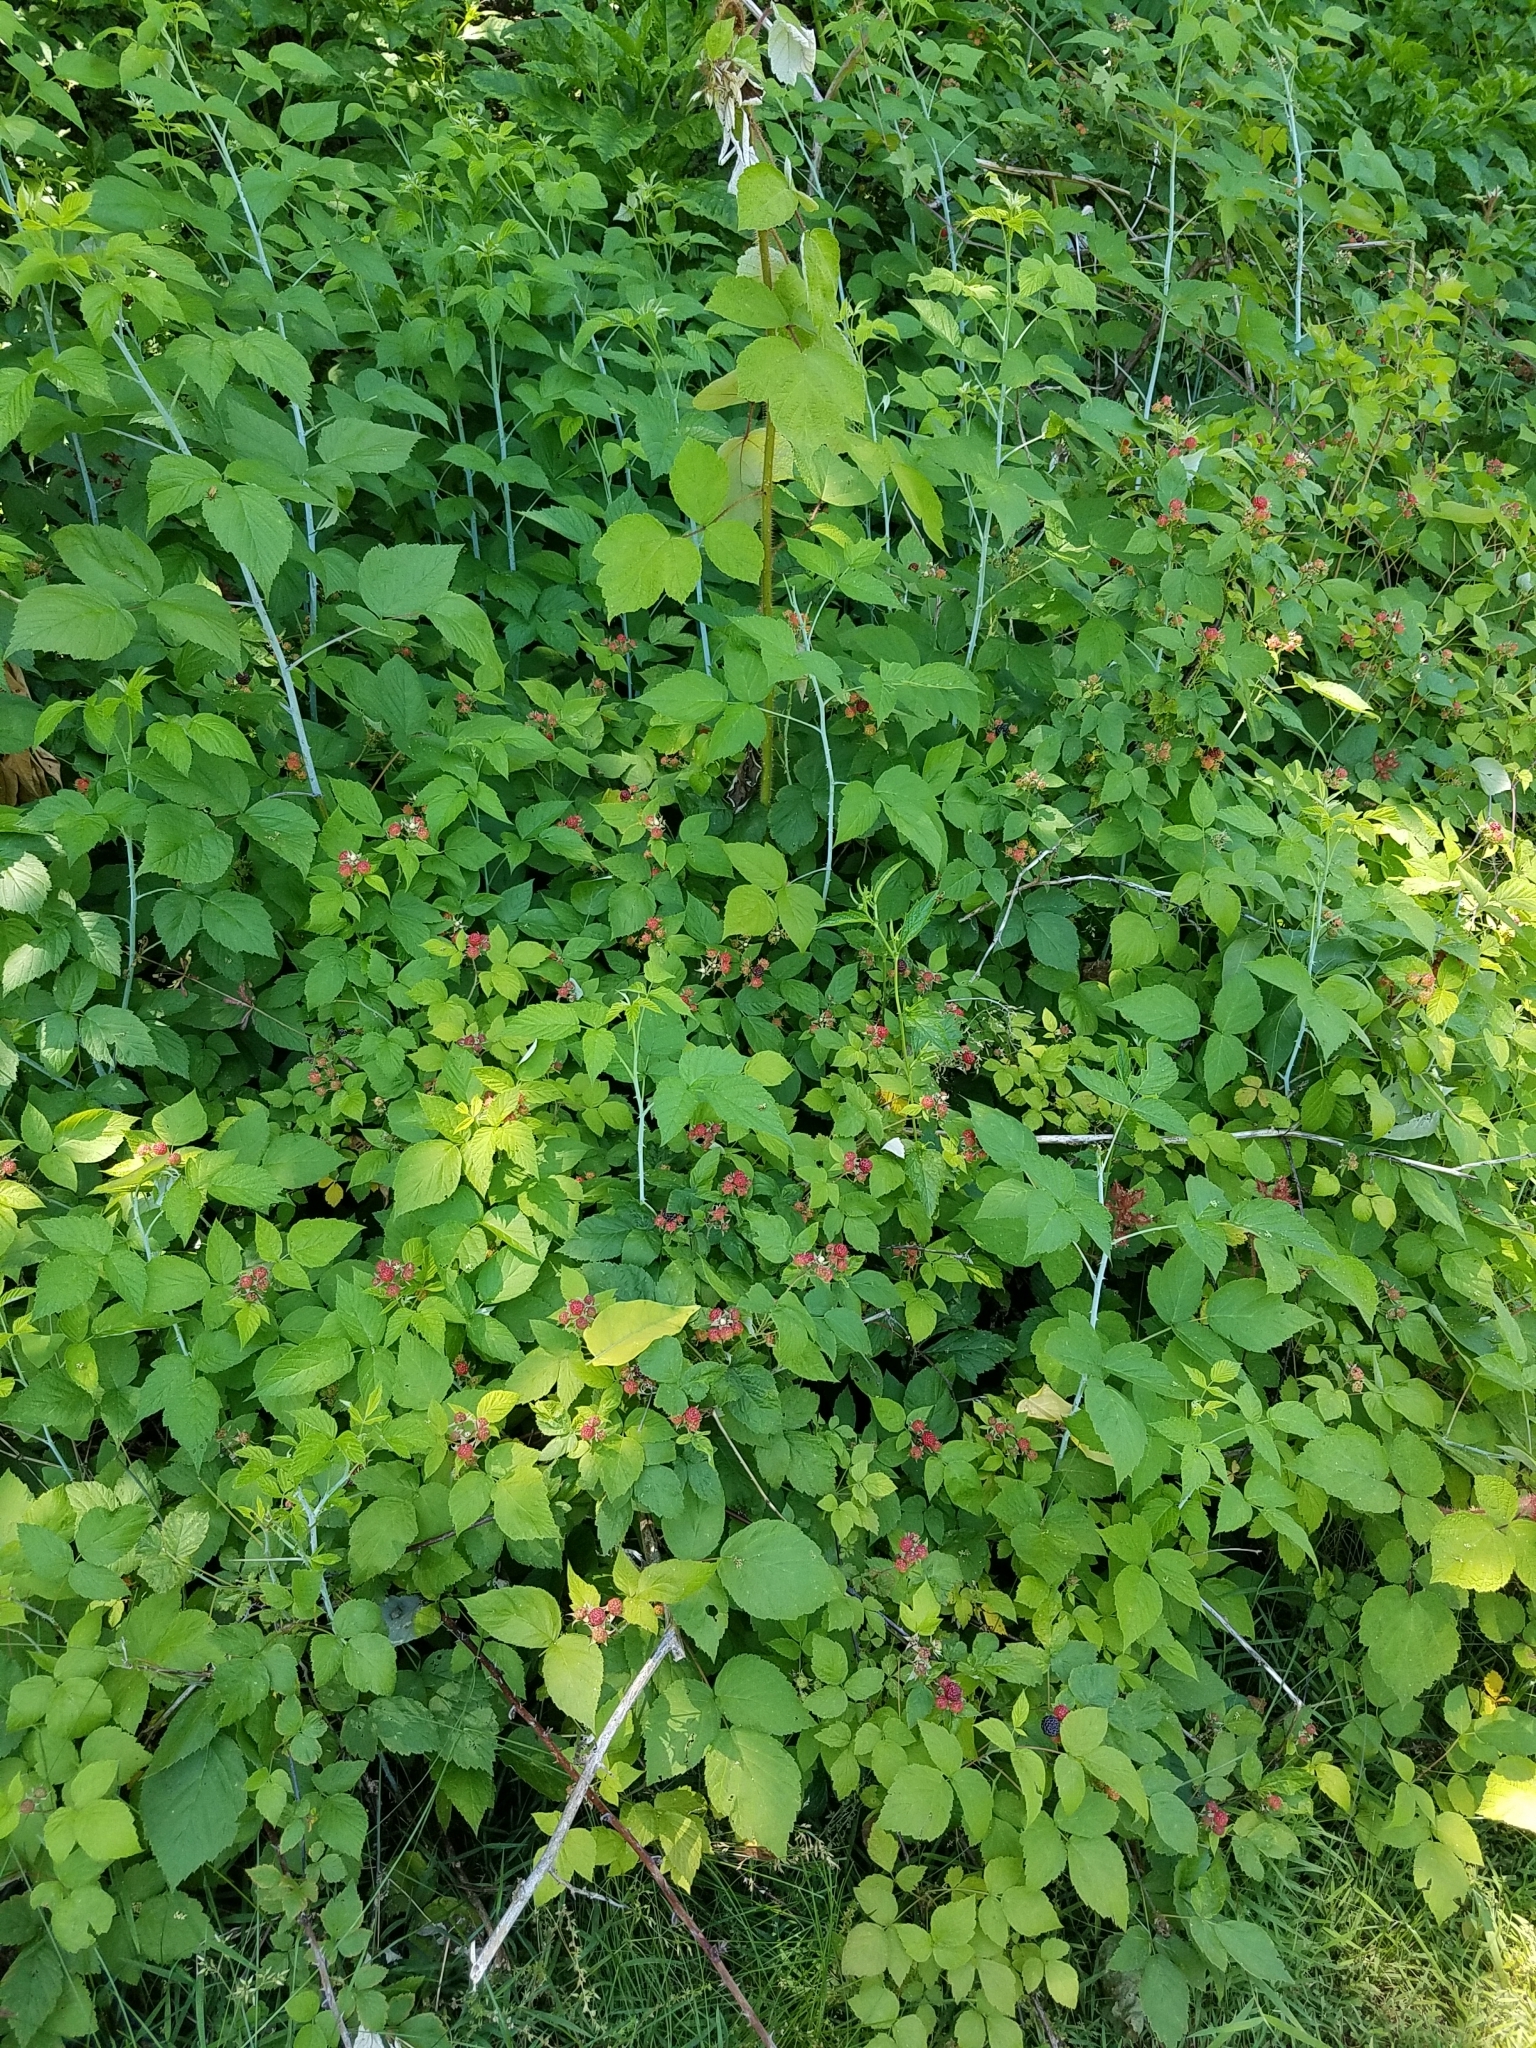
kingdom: Plantae
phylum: Tracheophyta
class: Magnoliopsida
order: Rosales
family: Rosaceae
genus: Rubus
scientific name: Rubus occidentalis
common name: Black raspberry
